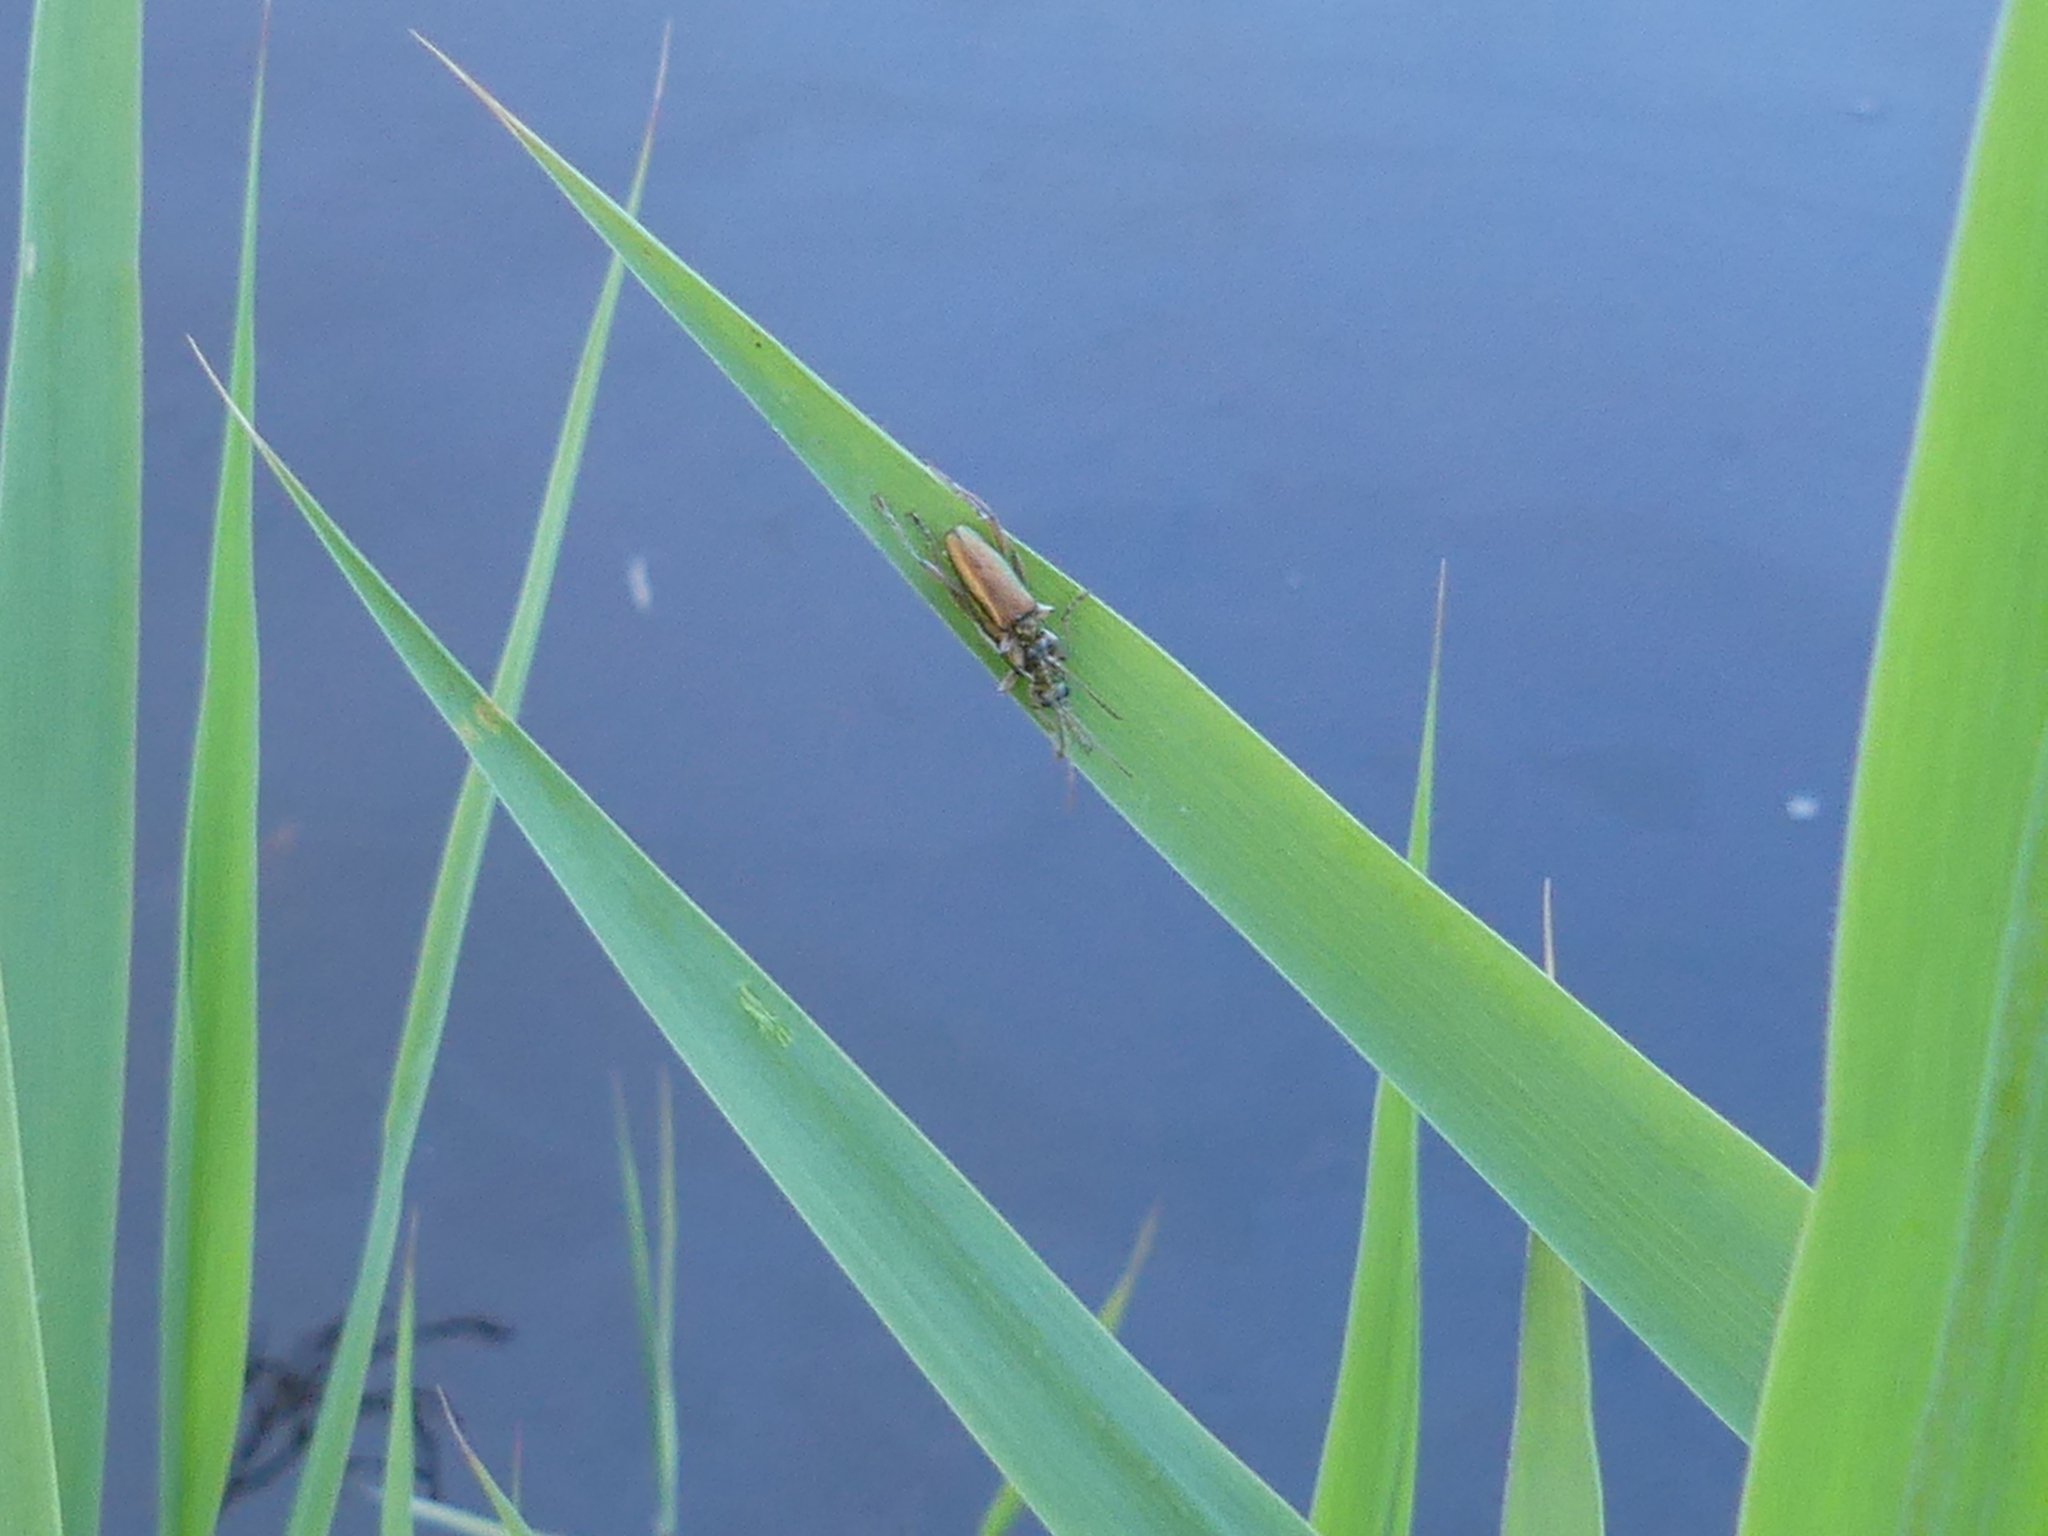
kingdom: Animalia
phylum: Arthropoda
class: Insecta
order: Coleoptera
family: Chrysomelidae
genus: Donacia
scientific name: Donacia clavipes
